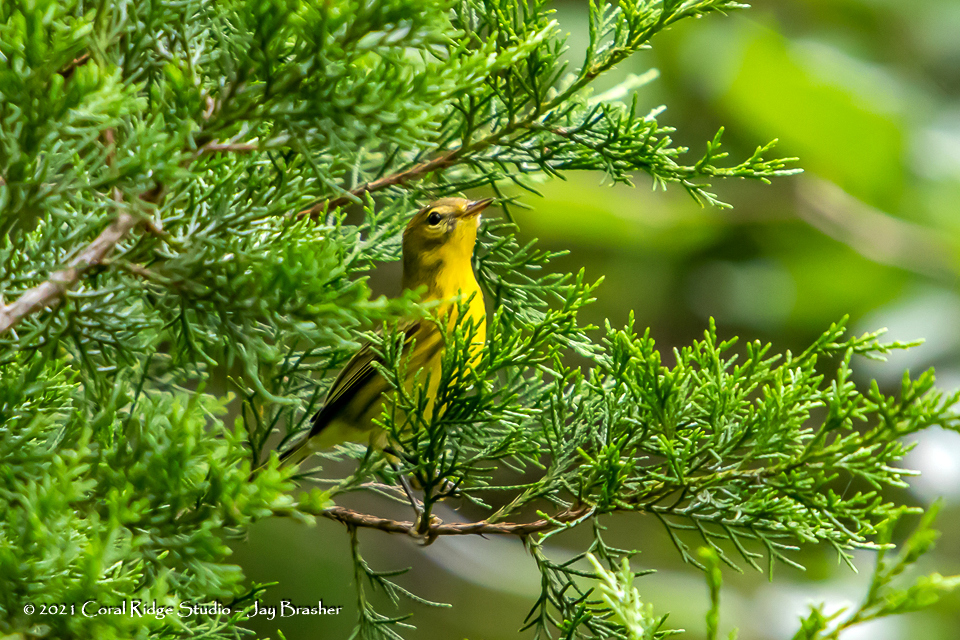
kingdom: Animalia
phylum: Chordata
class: Aves
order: Passeriformes
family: Parulidae
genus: Setophaga
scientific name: Setophaga discolor
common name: Prairie warbler
